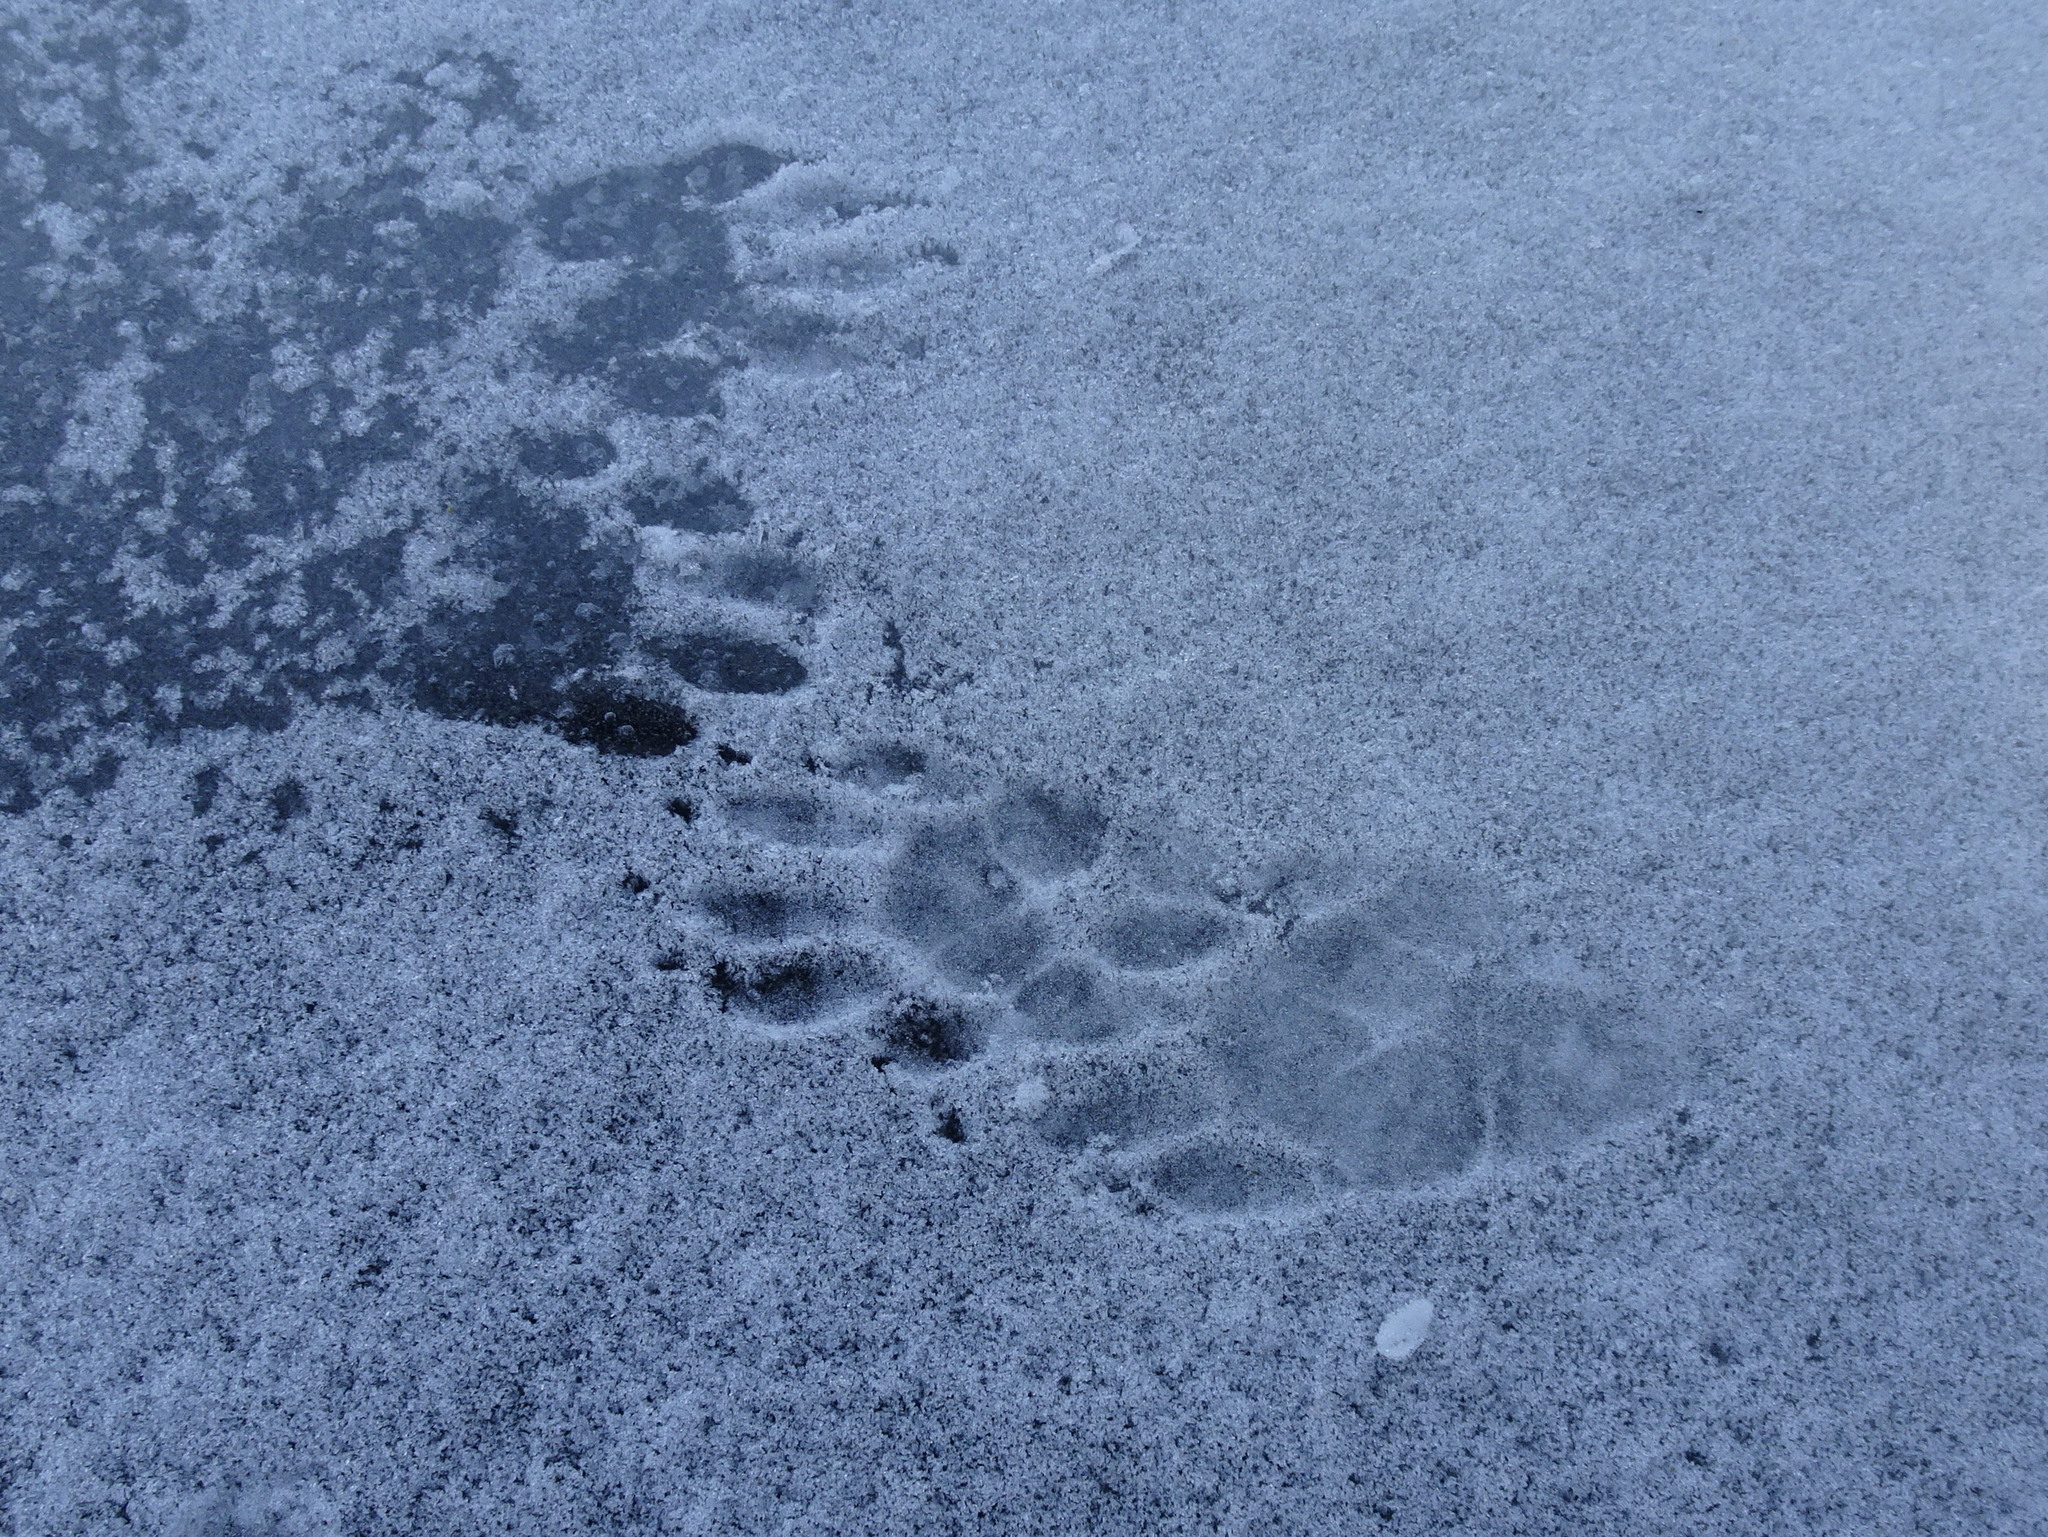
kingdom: Animalia
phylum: Chordata
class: Mammalia
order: Carnivora
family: Procyonidae
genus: Procyon
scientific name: Procyon lotor
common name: Raccoon
